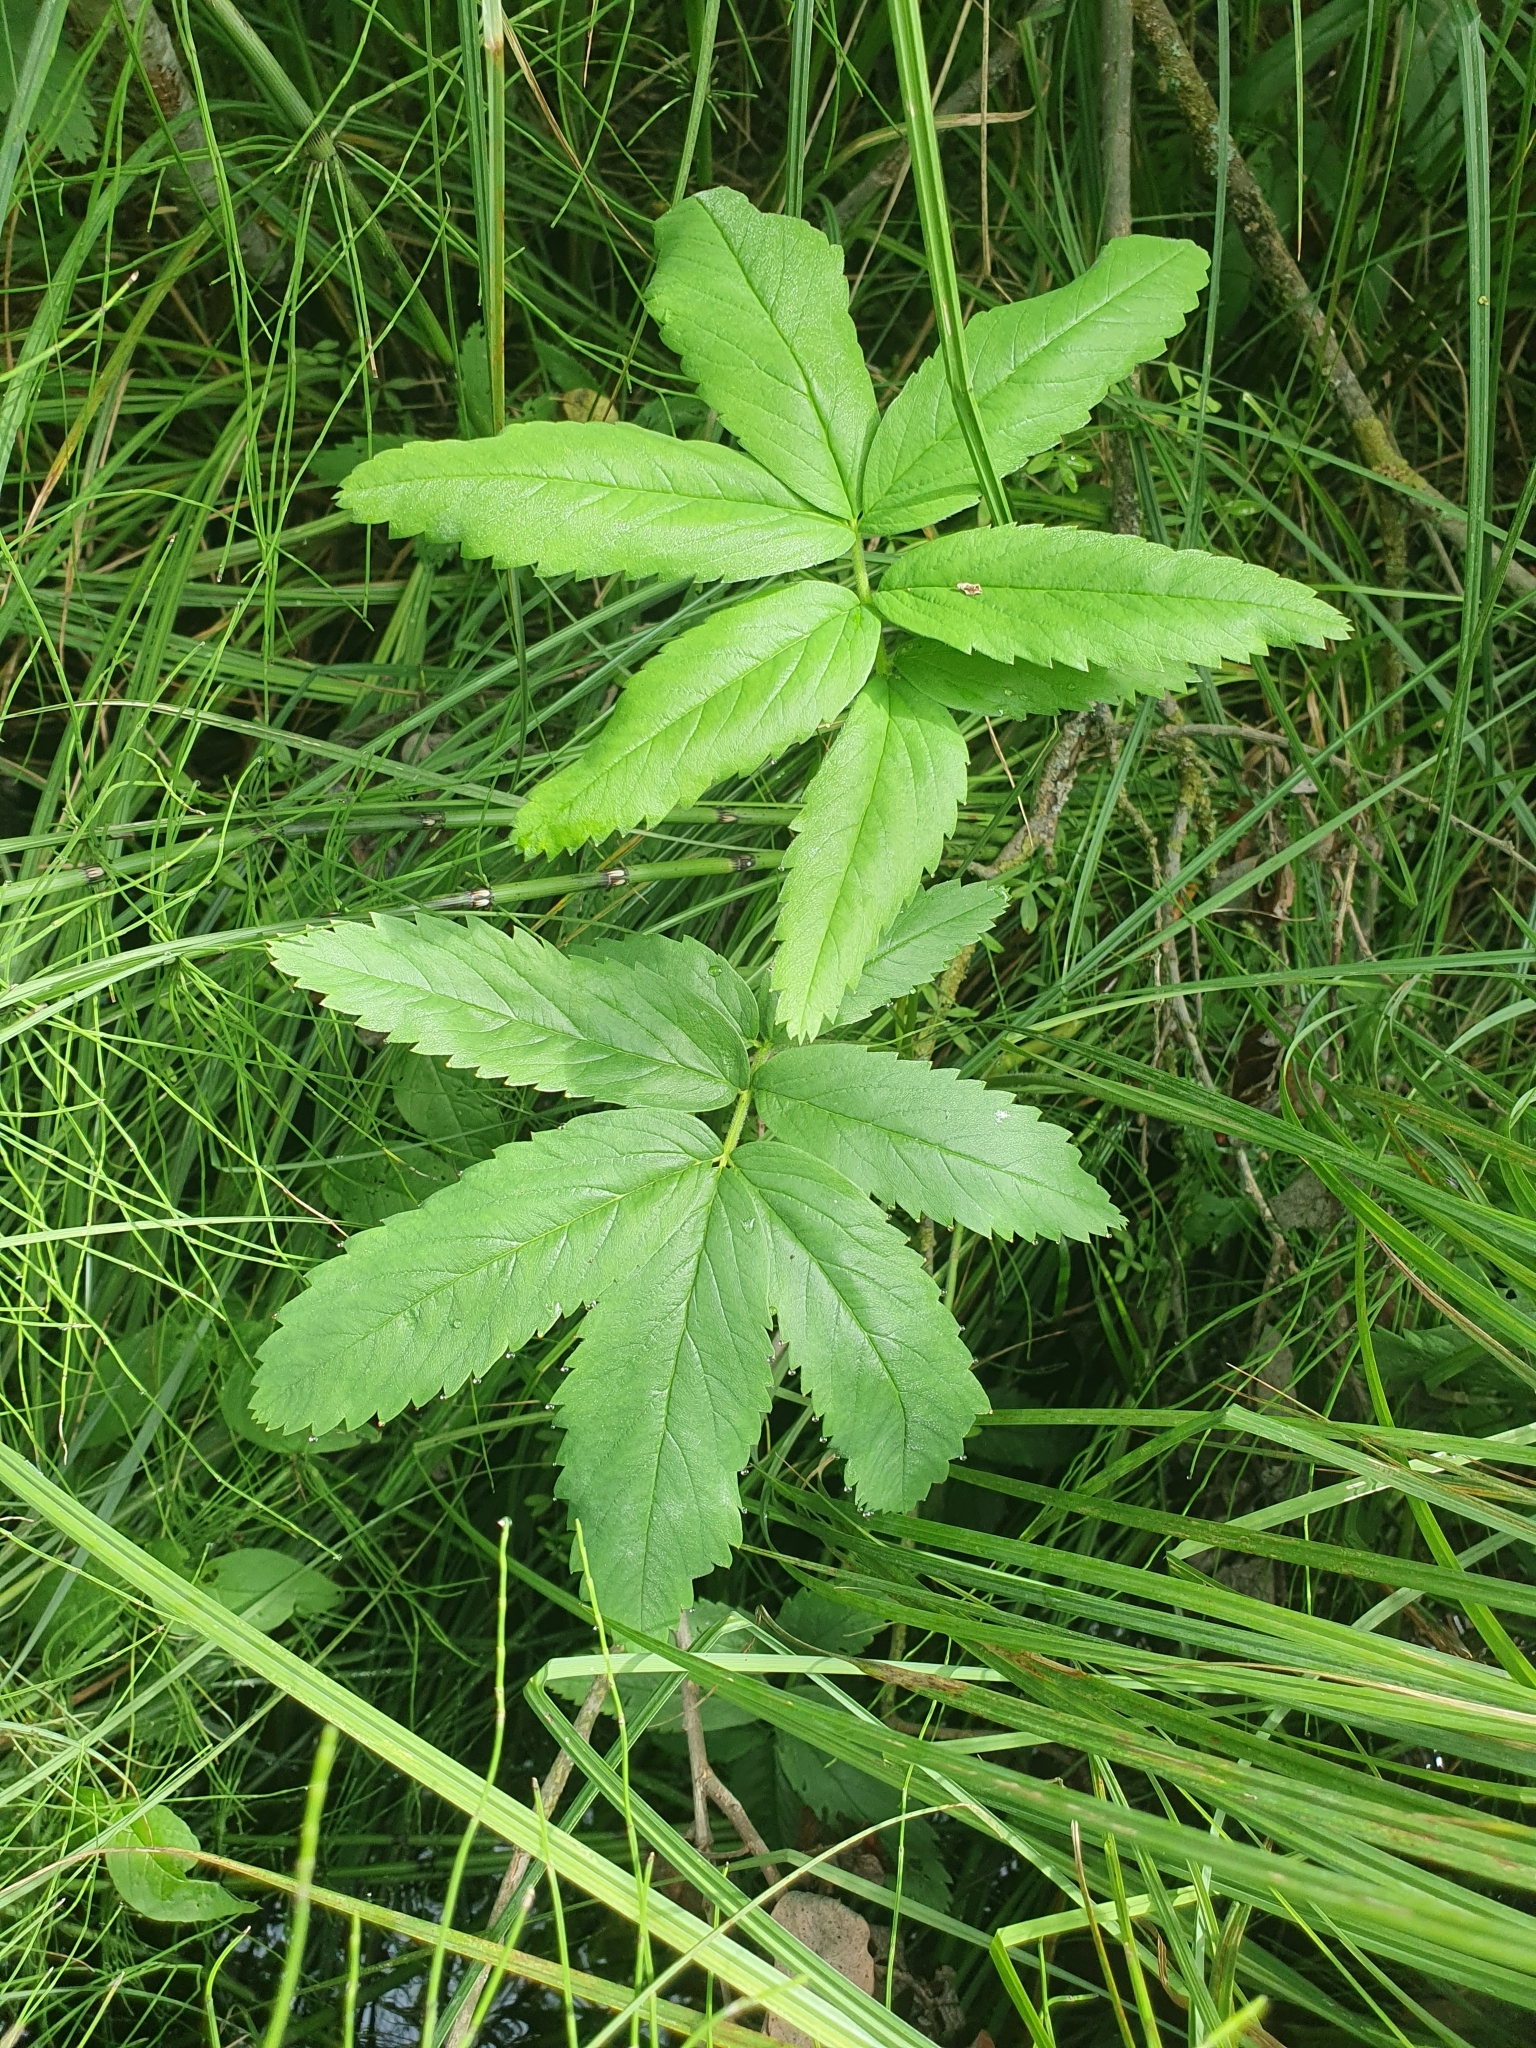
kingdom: Plantae
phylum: Tracheophyta
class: Magnoliopsida
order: Rosales
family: Rosaceae
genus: Comarum
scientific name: Comarum palustre
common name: Marsh cinquefoil
